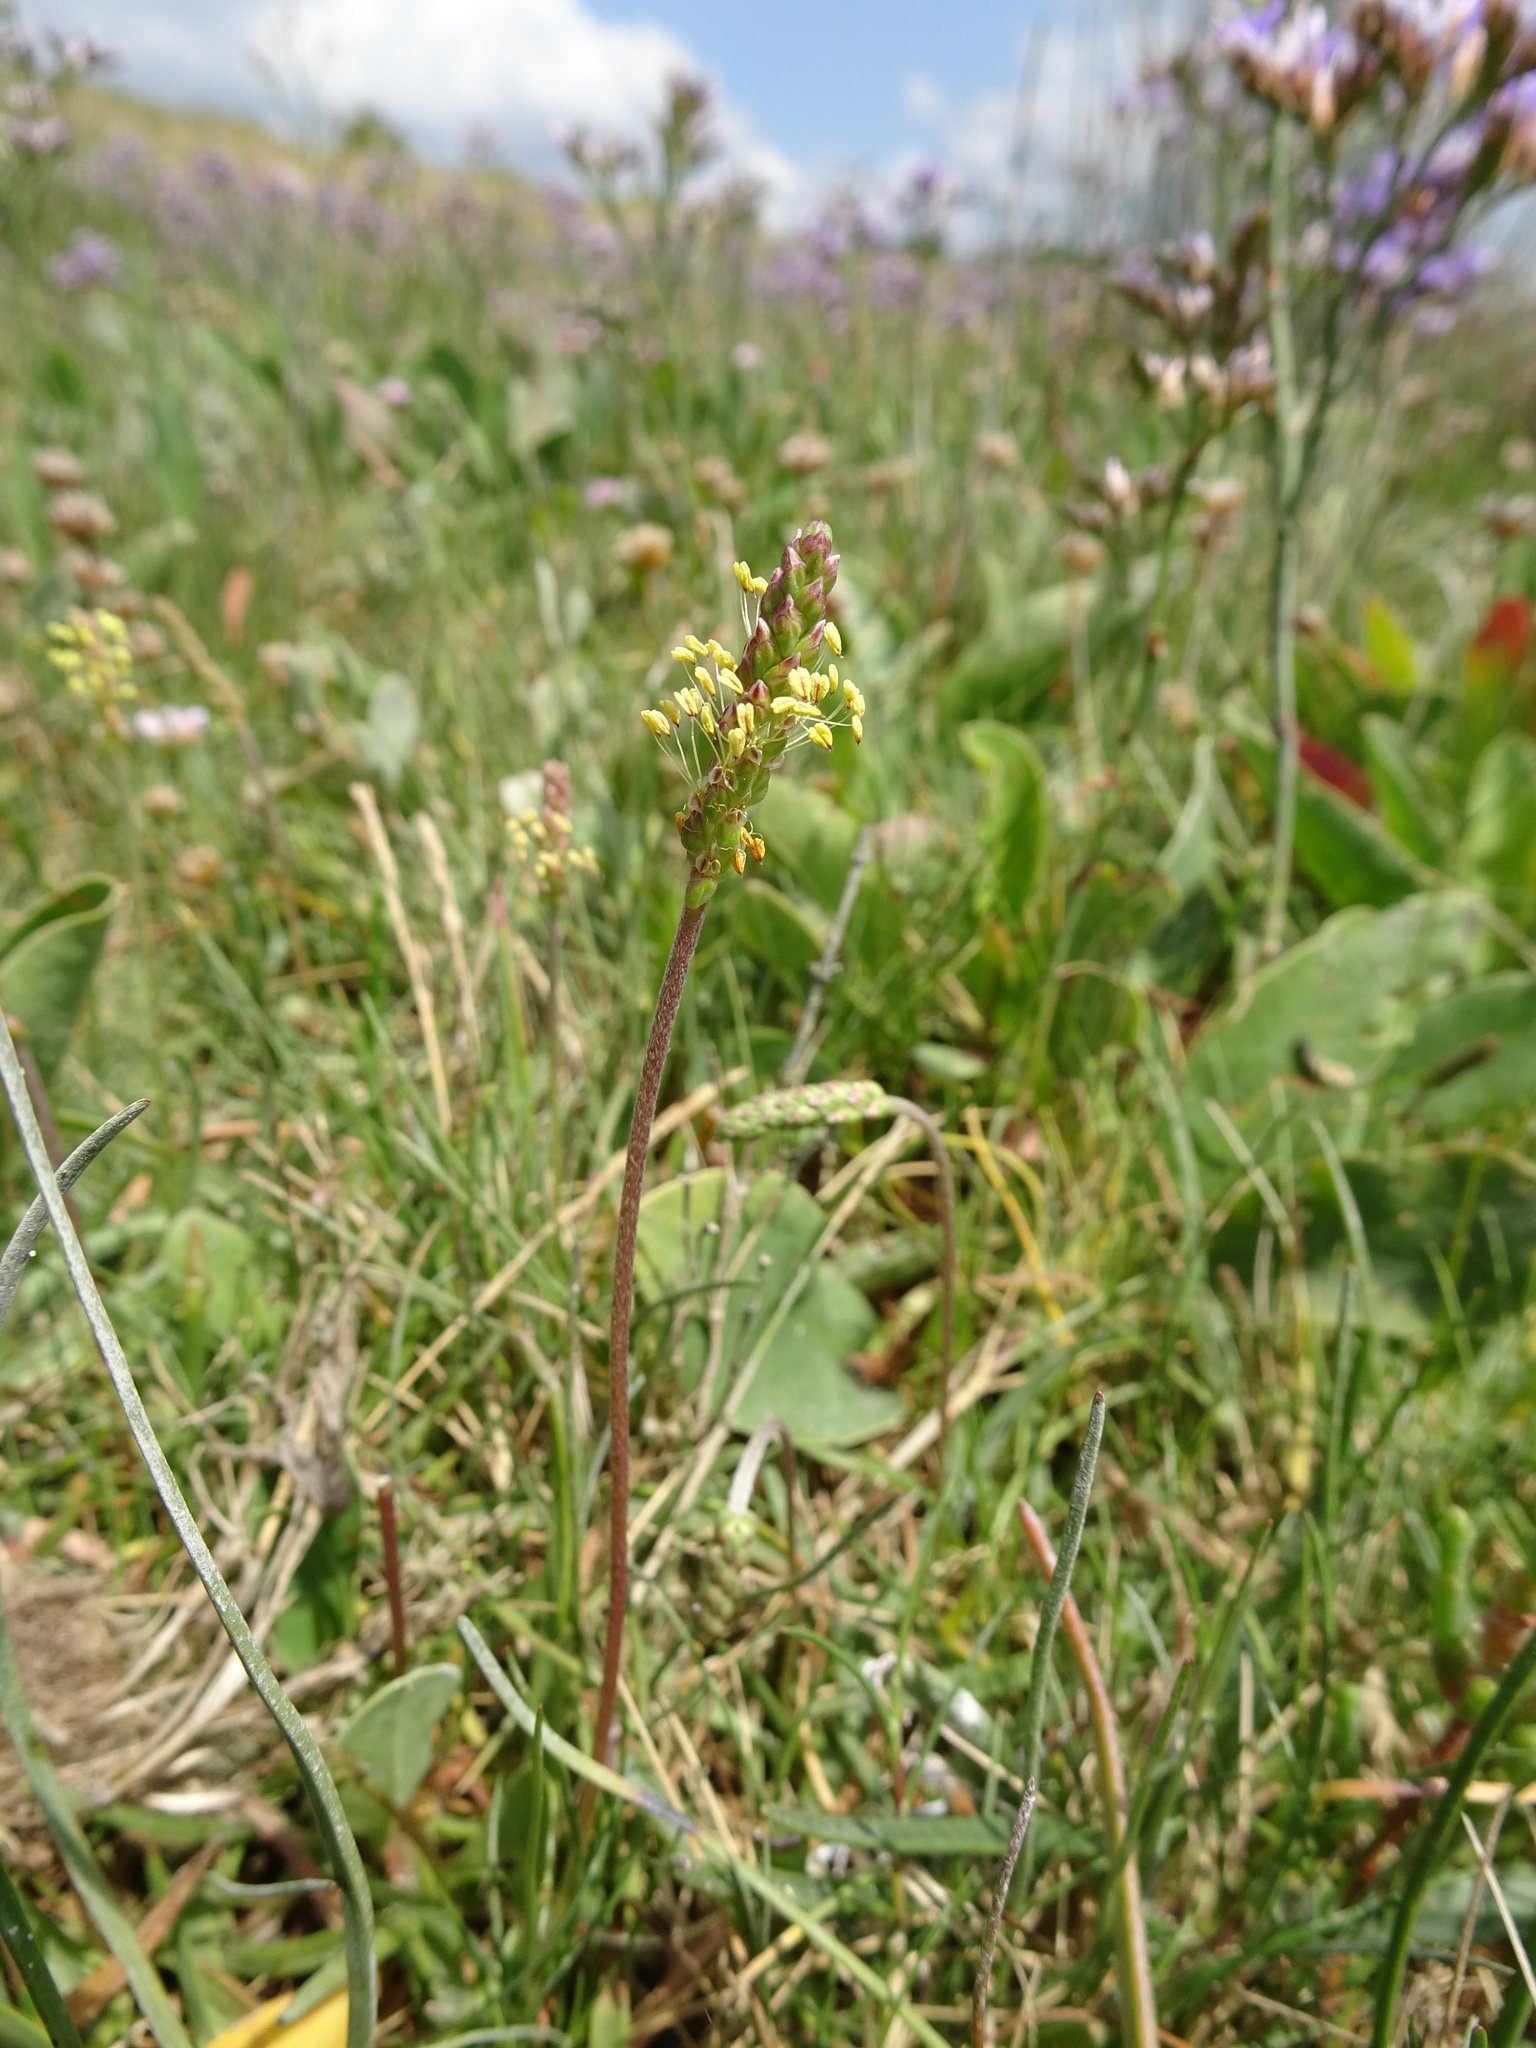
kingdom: Plantae
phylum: Tracheophyta
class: Magnoliopsida
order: Lamiales
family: Plantaginaceae
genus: Plantago
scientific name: Plantago maritima
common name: Sea plantain
